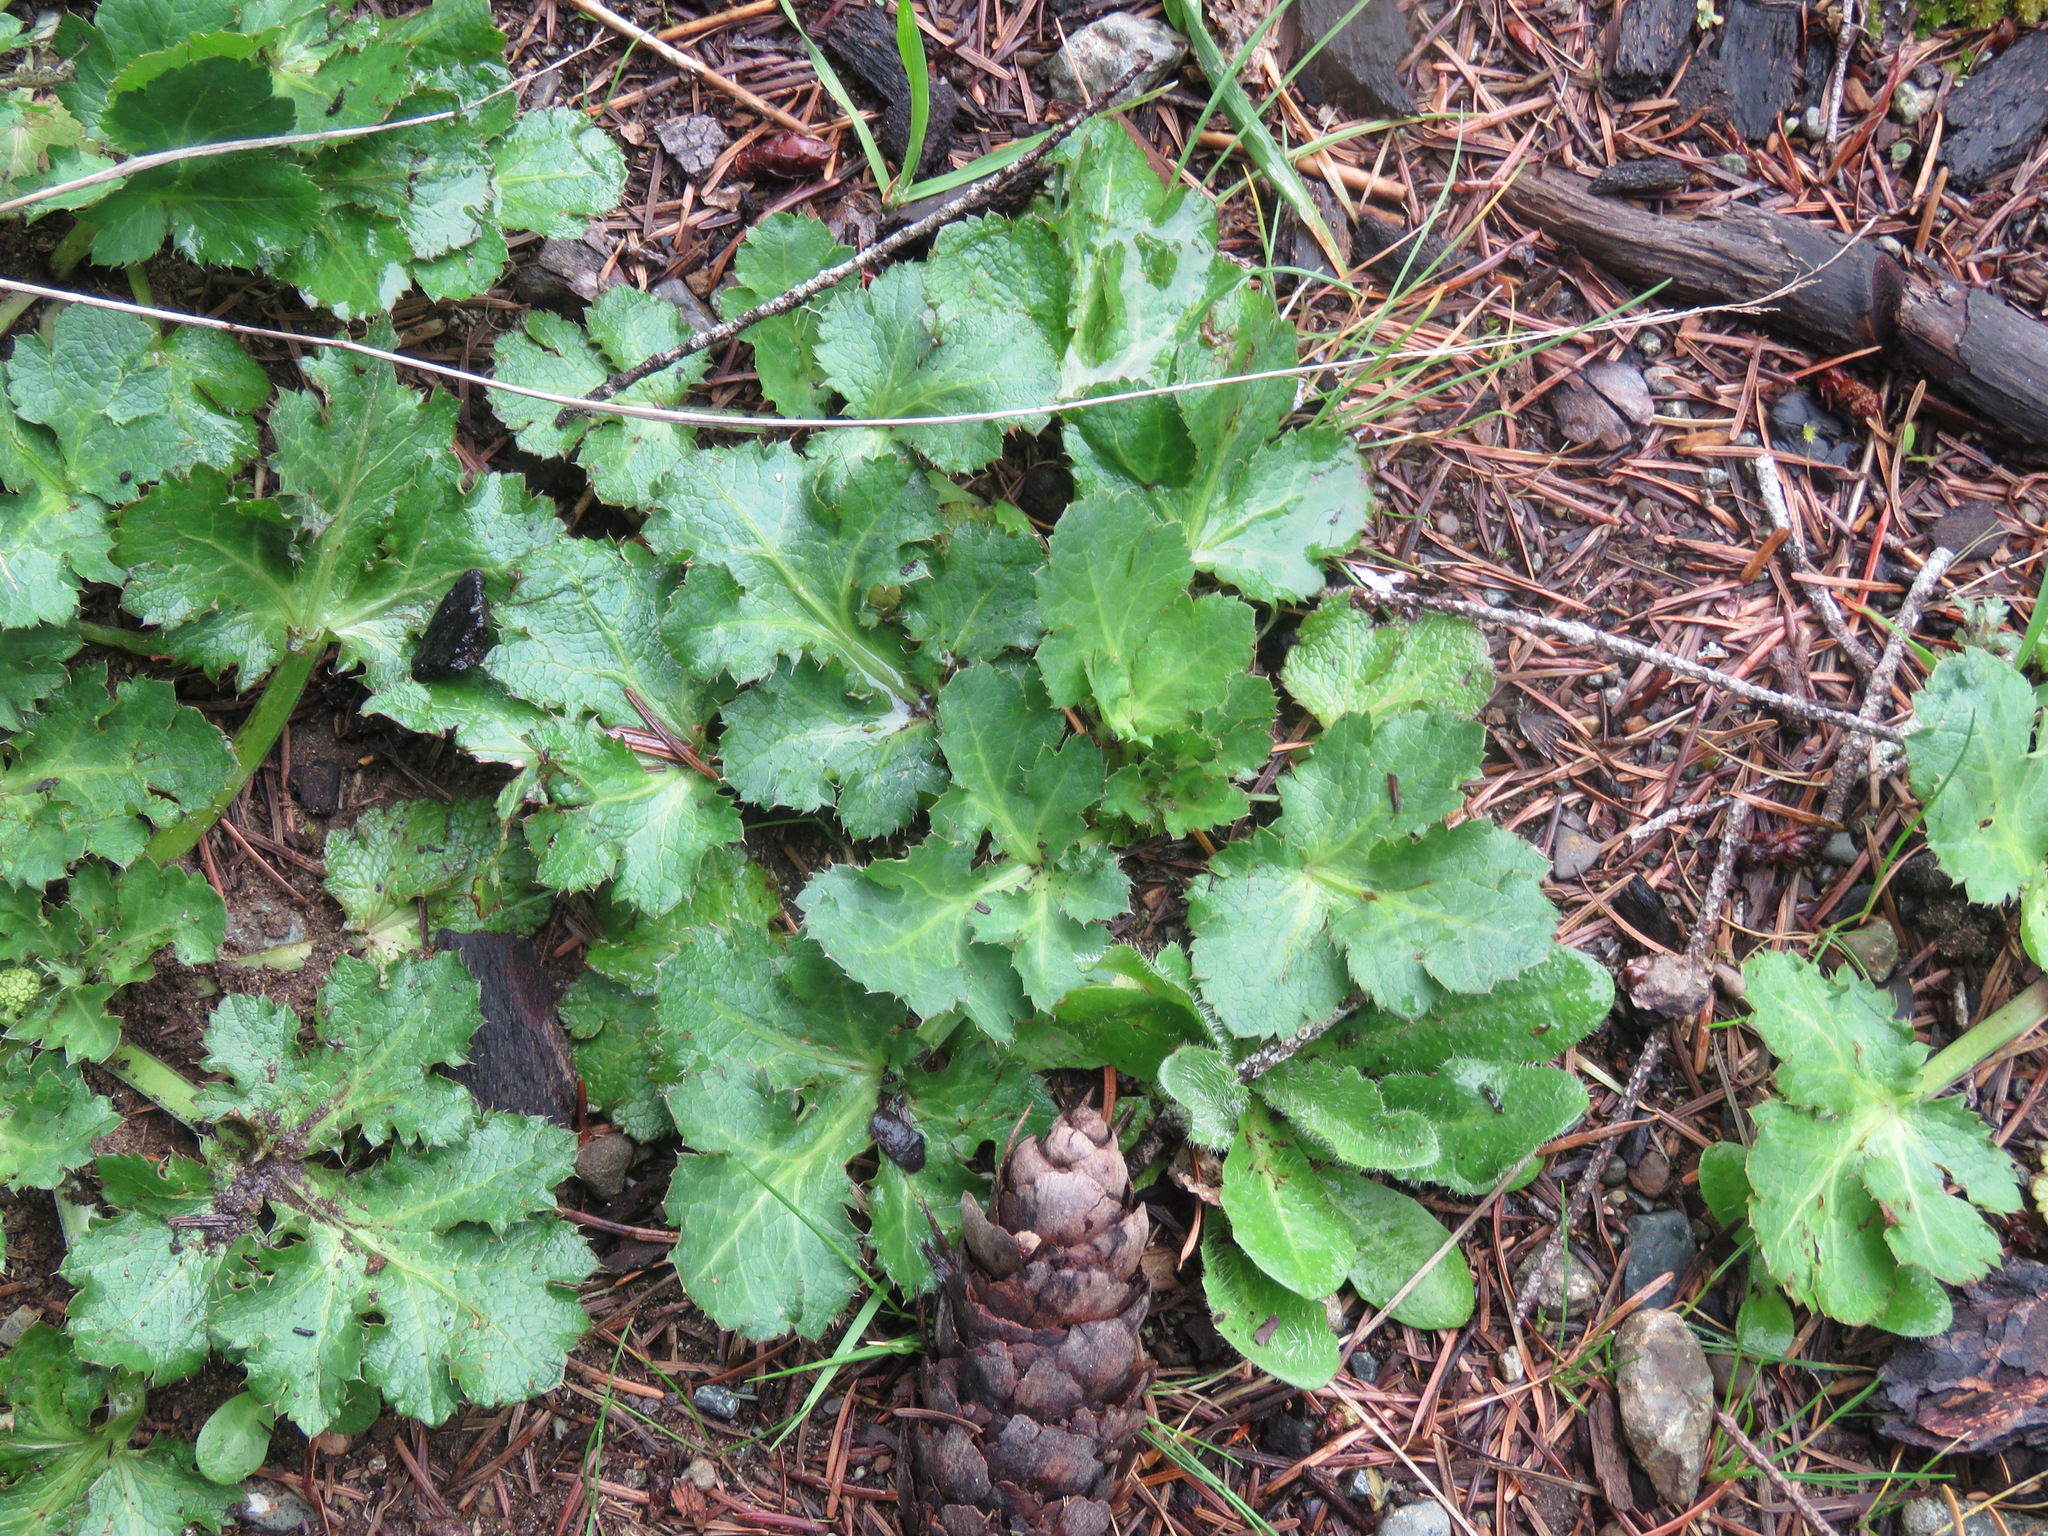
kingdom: Plantae
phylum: Tracheophyta
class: Magnoliopsida
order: Apiales
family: Apiaceae
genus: Sanicula
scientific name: Sanicula crassicaulis
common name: Western snakeroot
